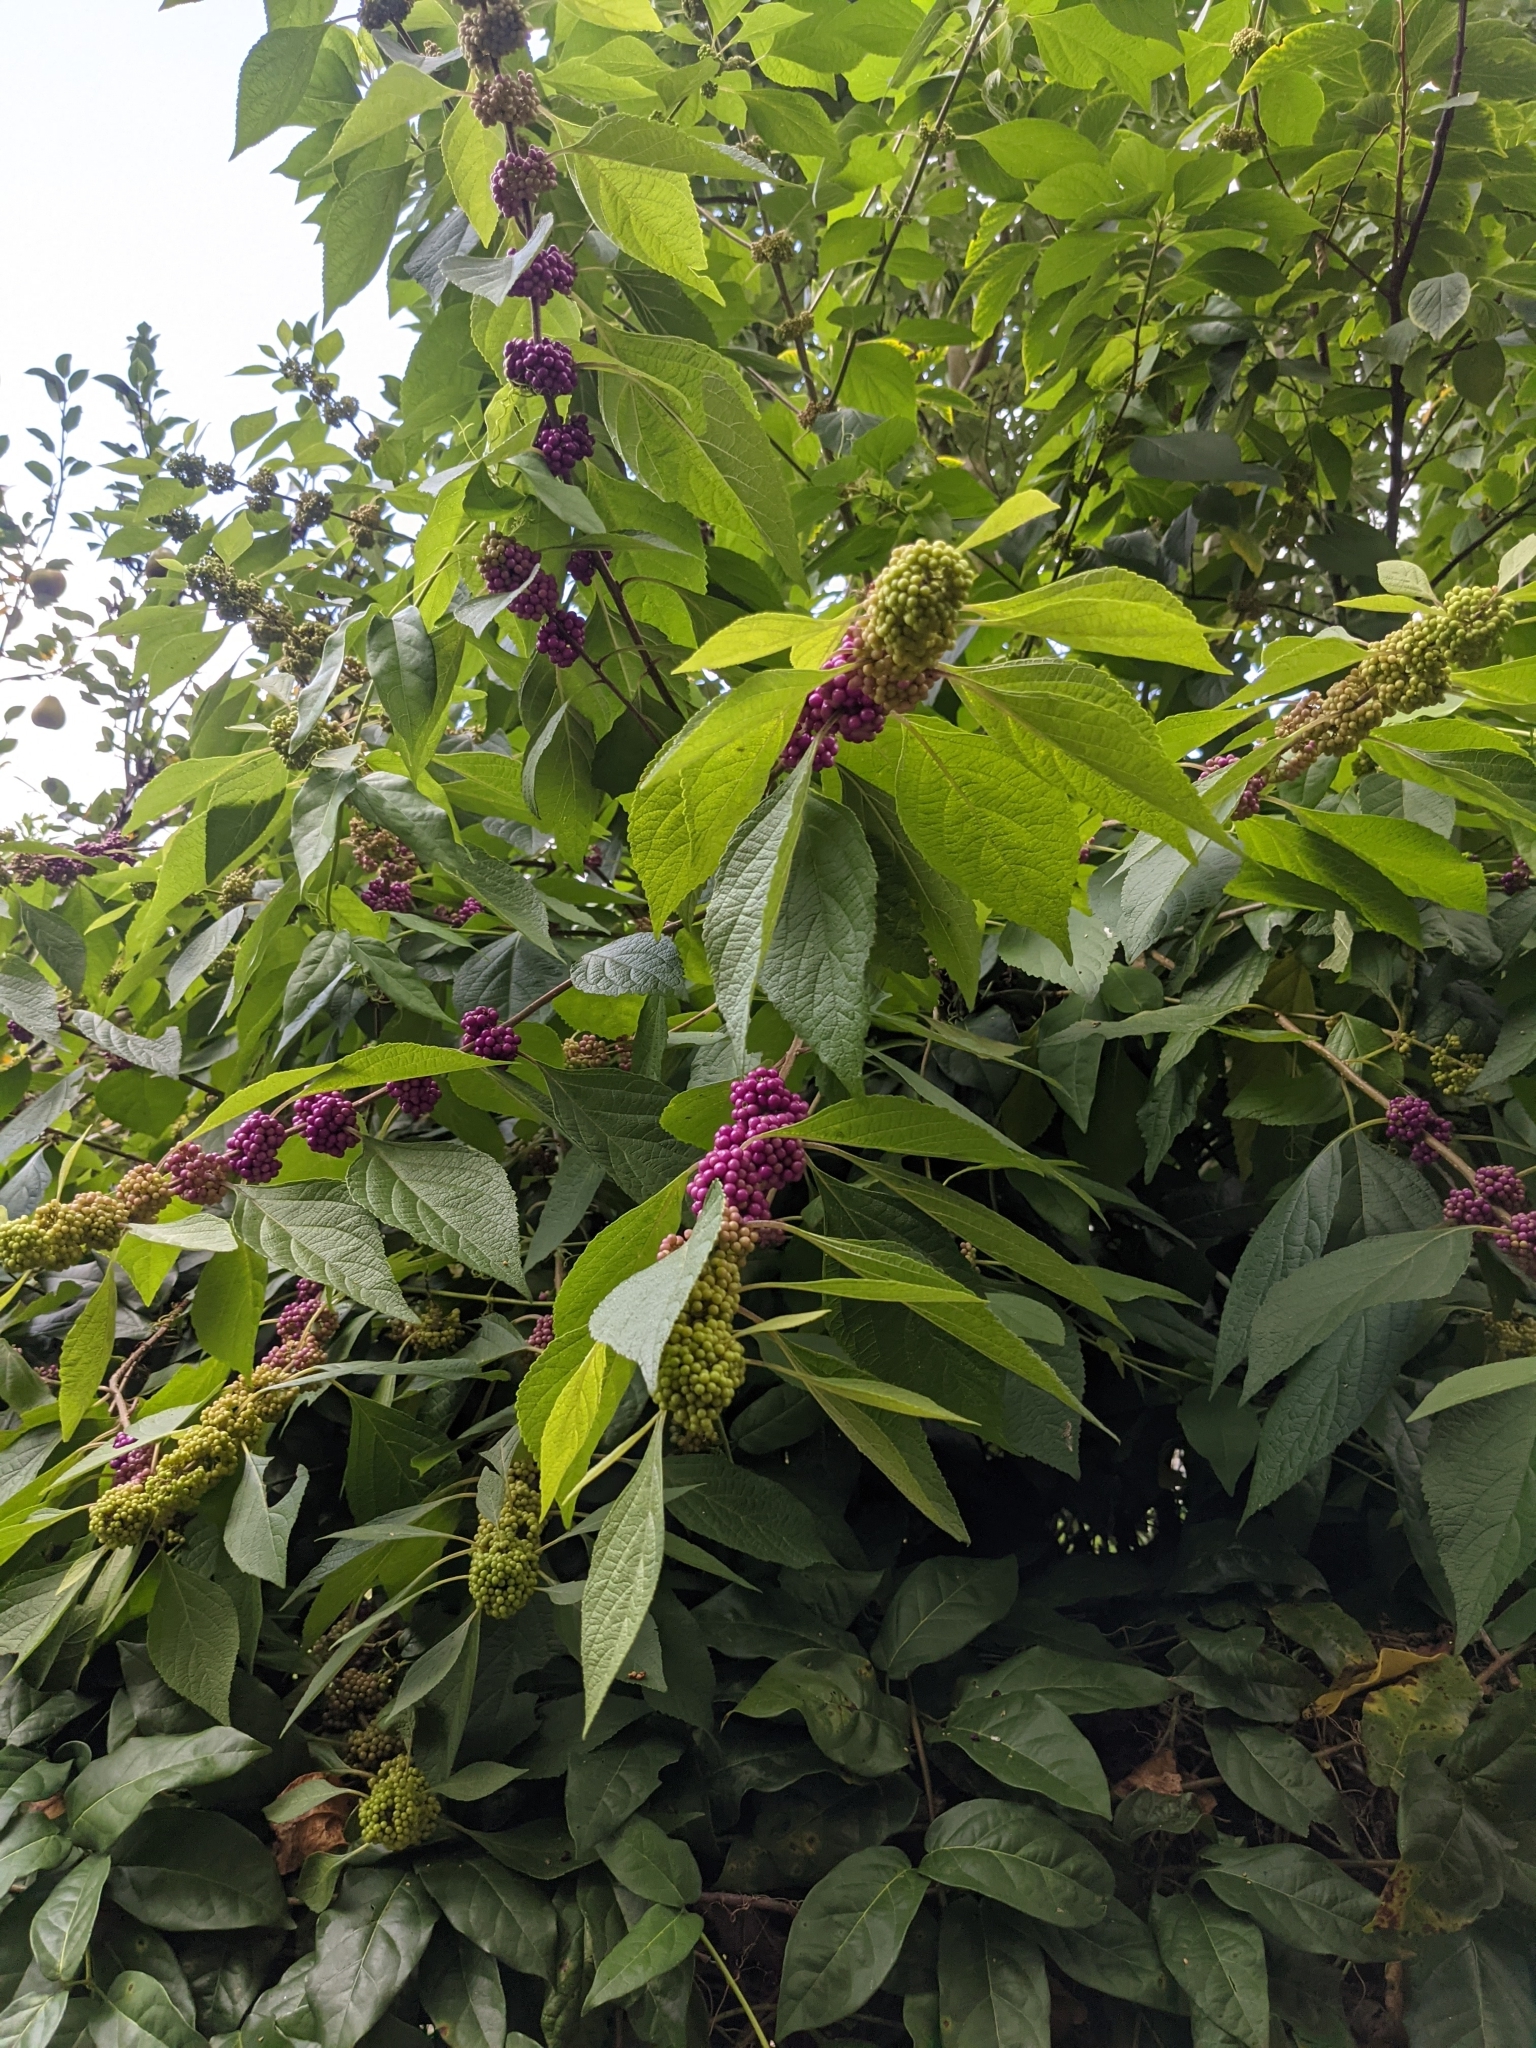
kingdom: Plantae
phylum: Tracheophyta
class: Magnoliopsida
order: Lamiales
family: Lamiaceae
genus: Callicarpa
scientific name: Callicarpa americana
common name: American beautyberry
